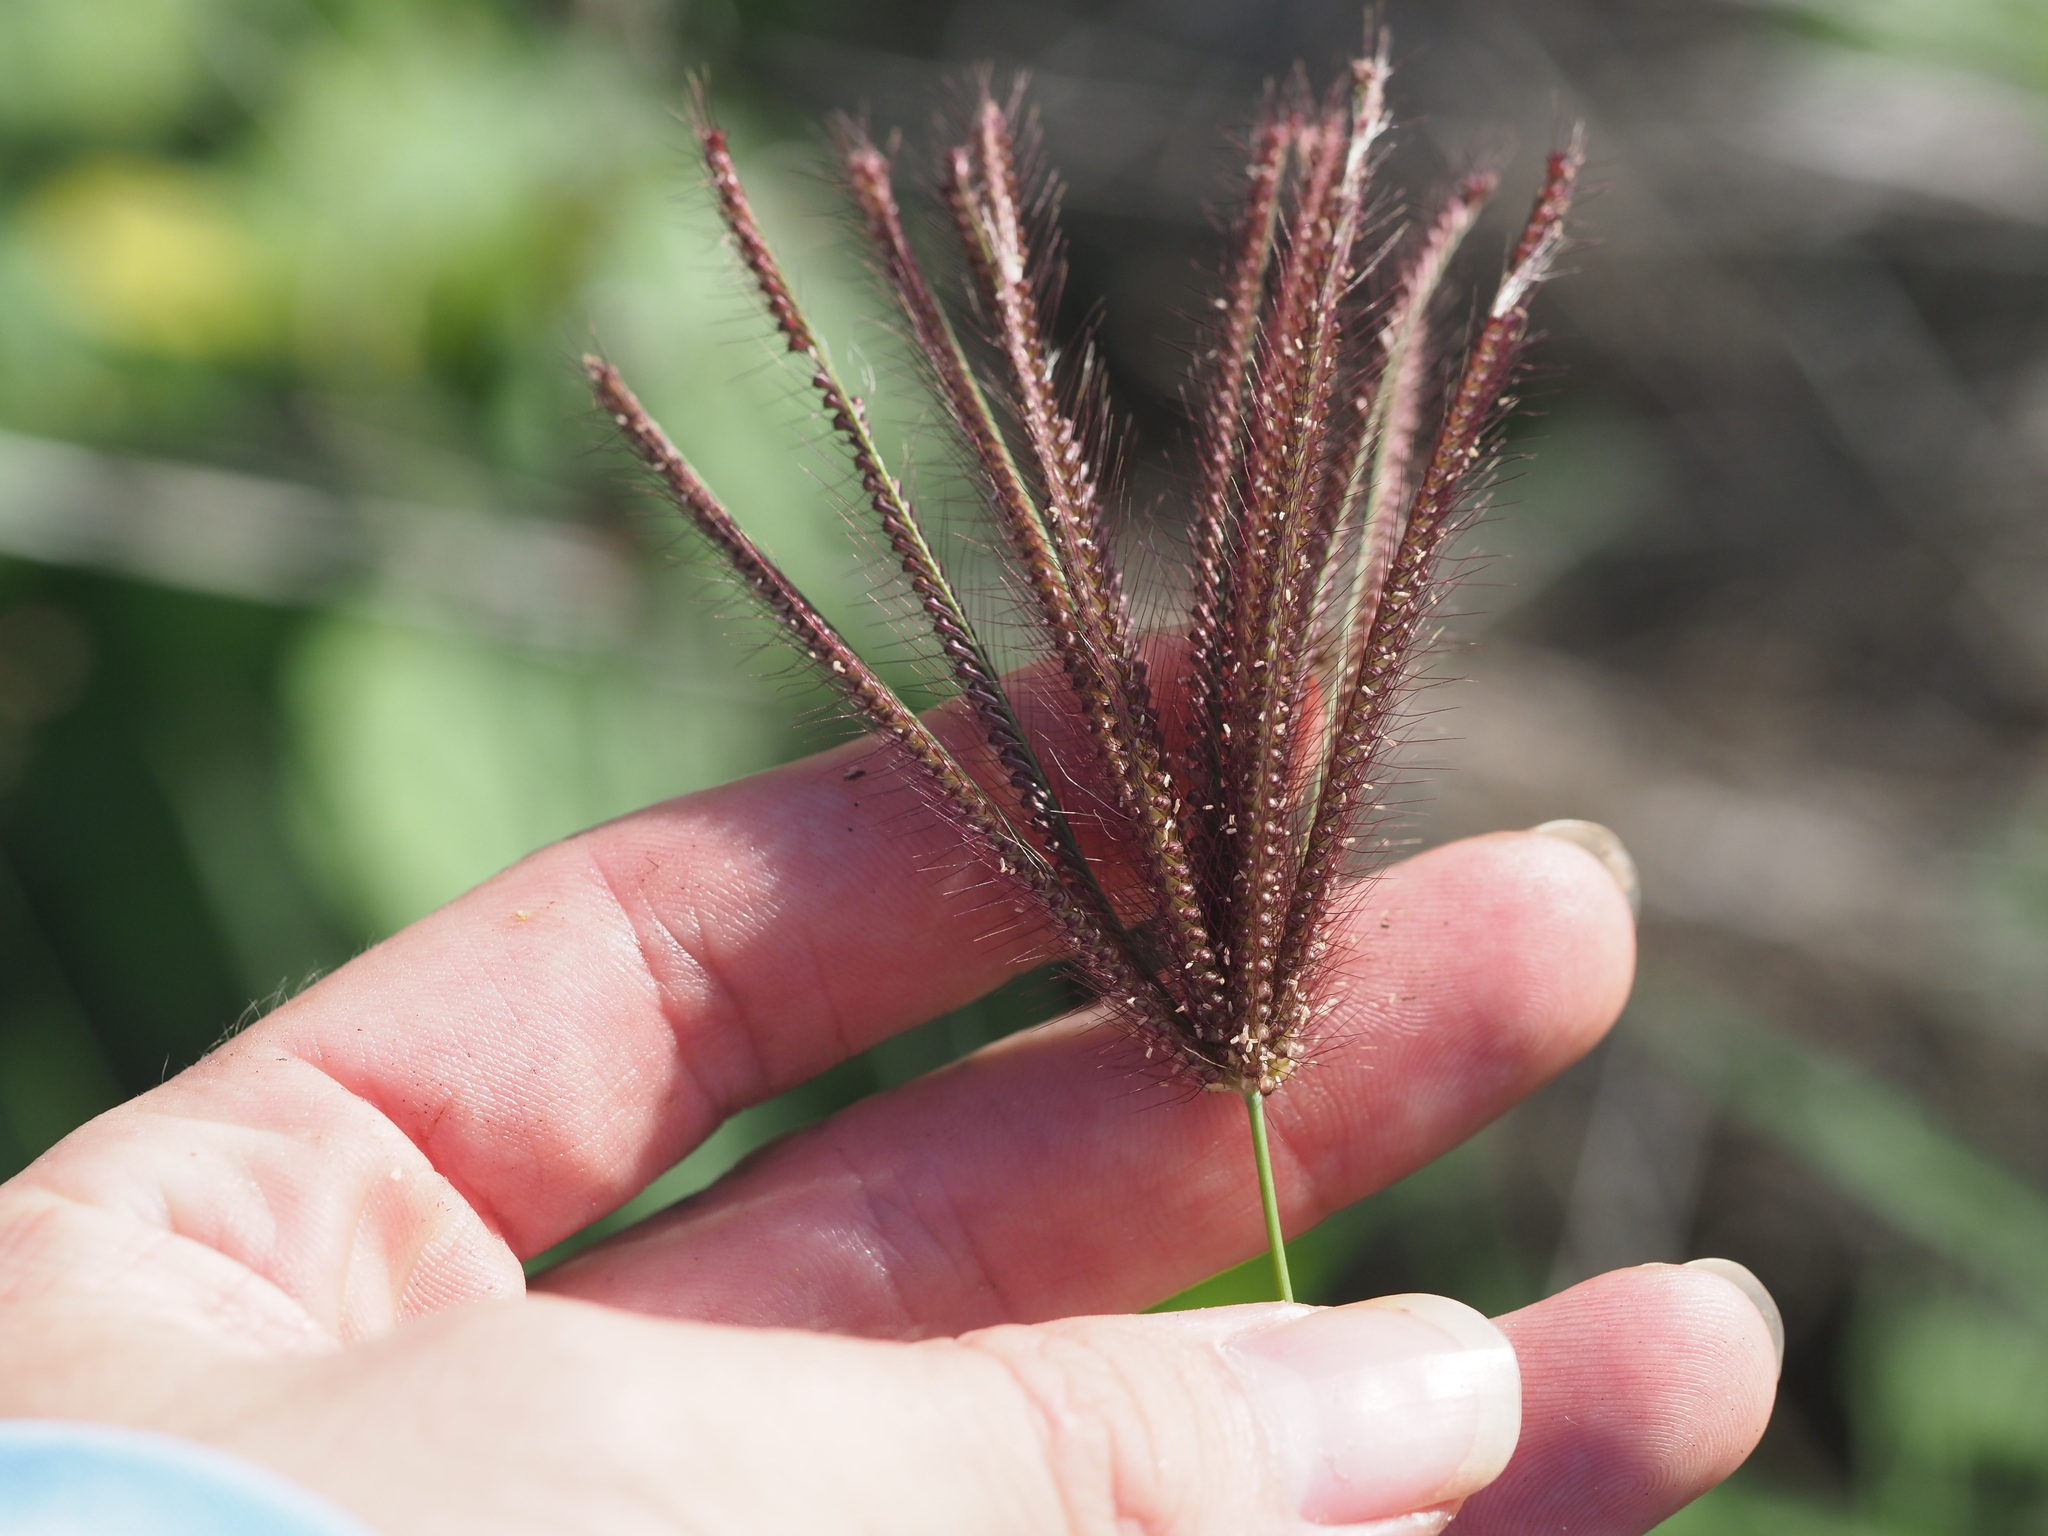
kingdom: Plantae
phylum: Tracheophyta
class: Liliopsida
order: Poales
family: Poaceae
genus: Chloris
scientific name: Chloris barbata
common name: Swollen fingergrass
